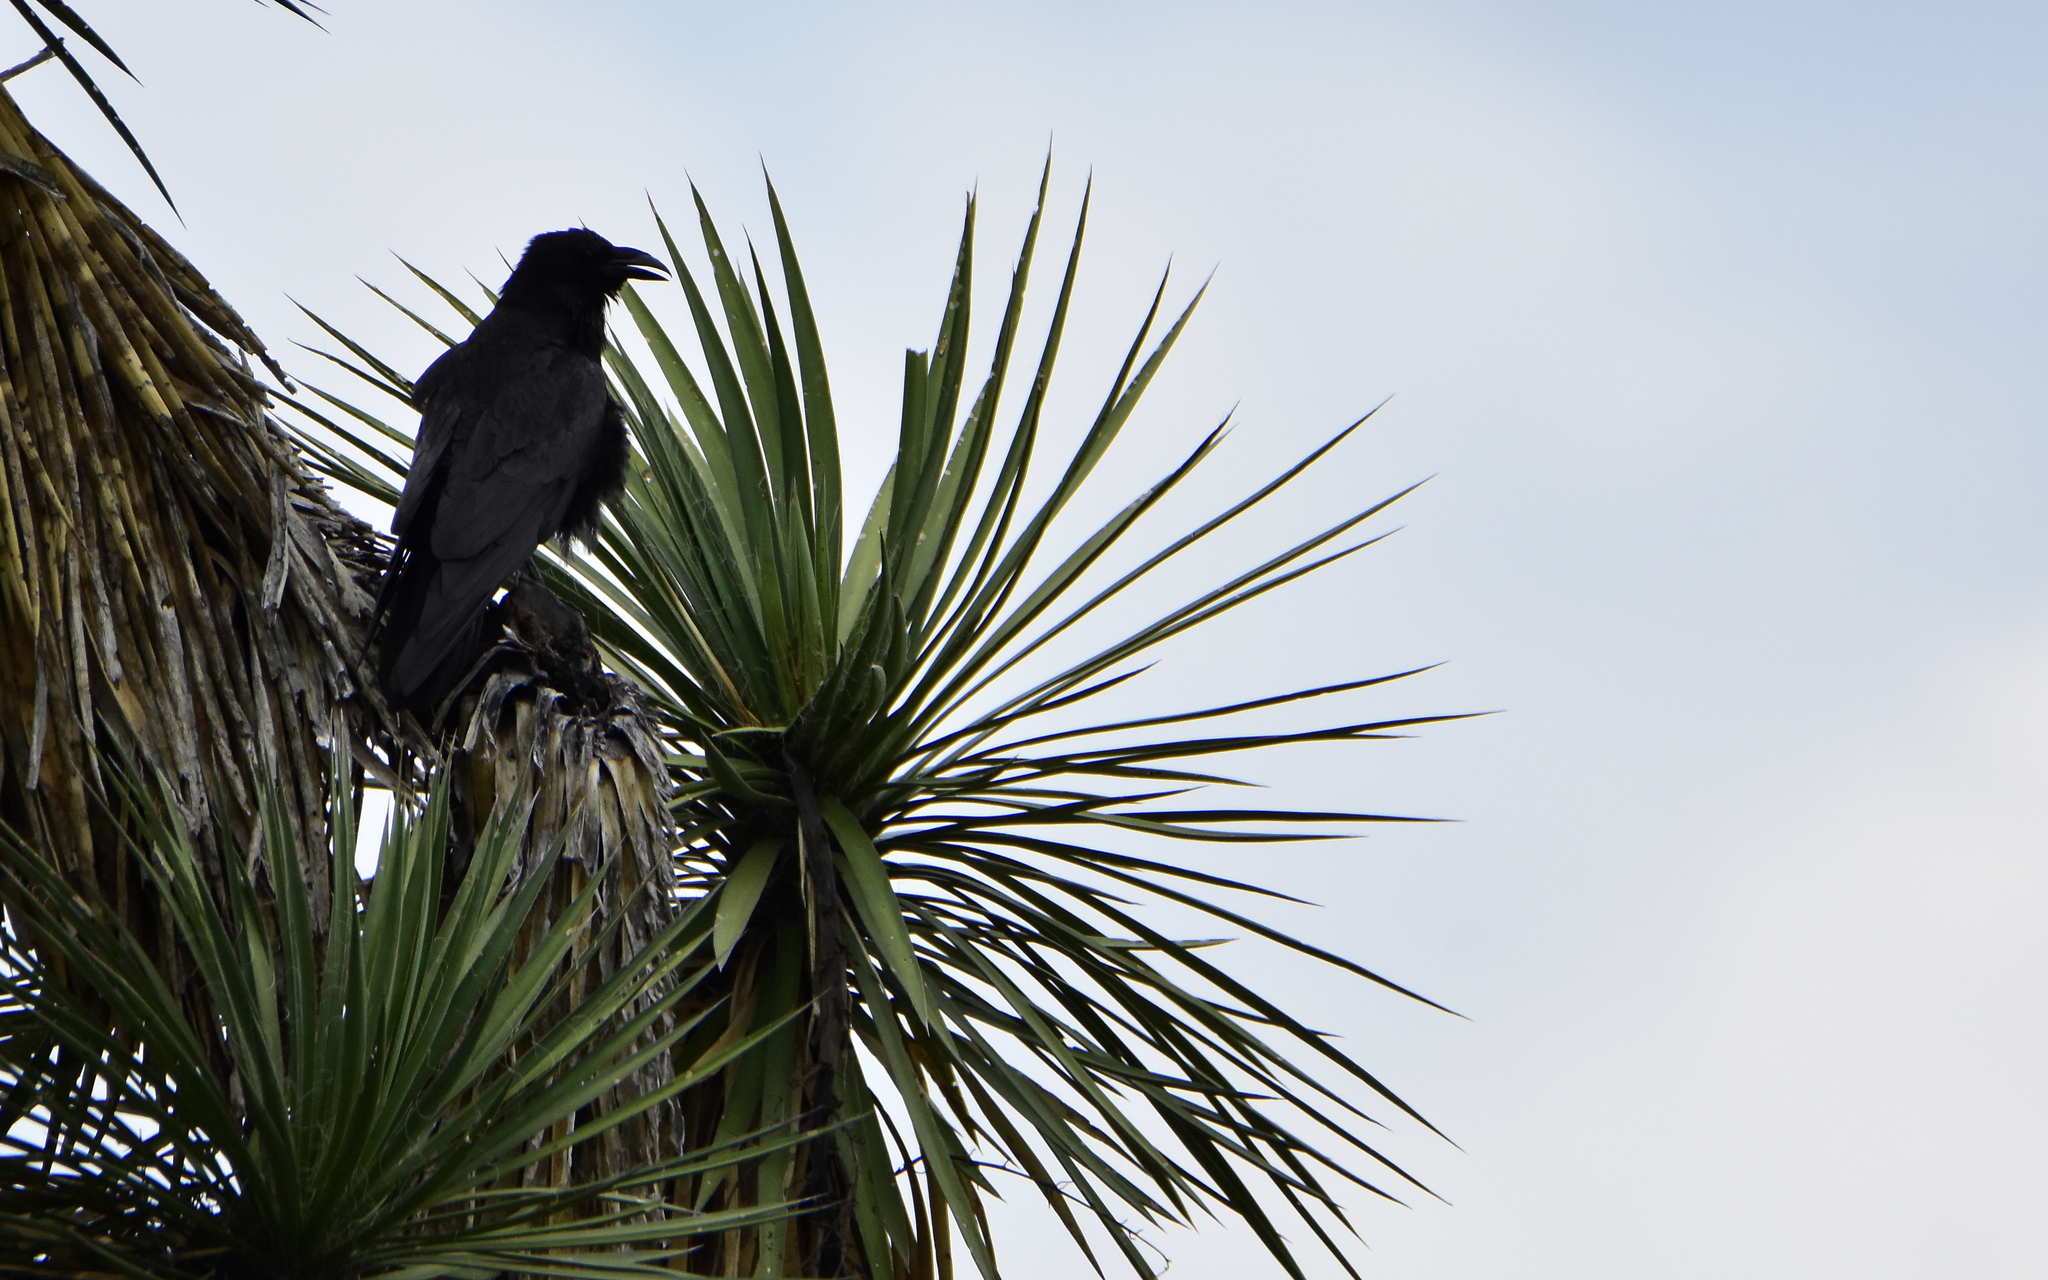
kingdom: Animalia
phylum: Chordata
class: Aves
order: Passeriformes
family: Corvidae
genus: Corvus
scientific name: Corvus corax
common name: Common raven
